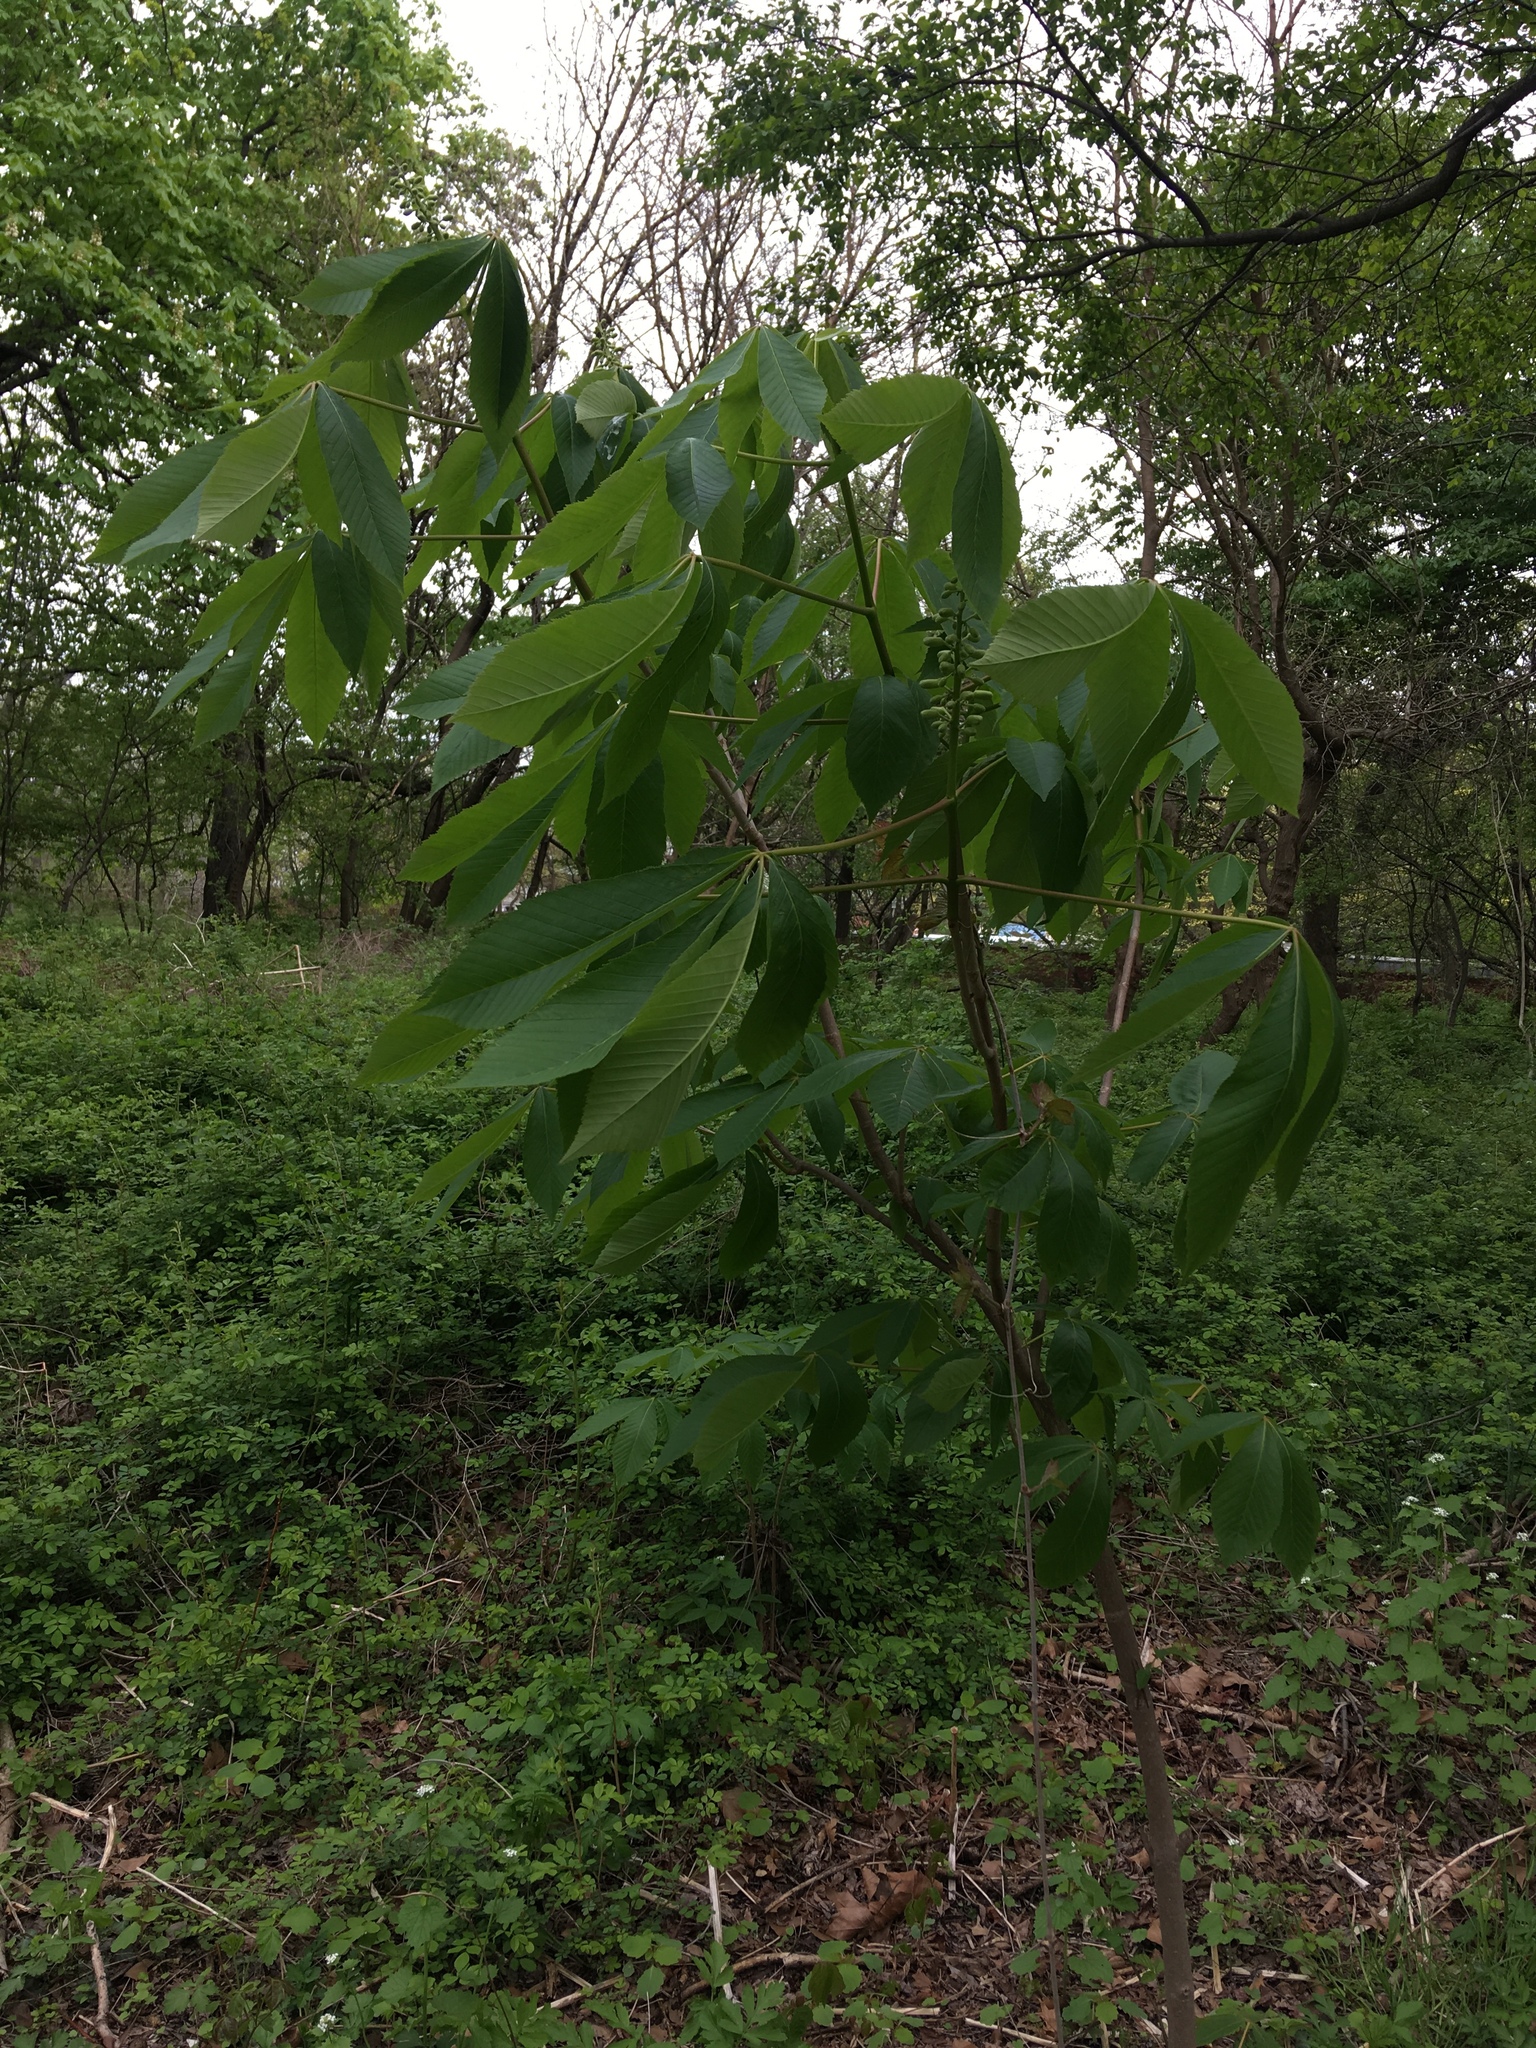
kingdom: Plantae
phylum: Tracheophyta
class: Magnoliopsida
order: Sapindales
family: Sapindaceae
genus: Aesculus
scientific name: Aesculus glabra
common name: Ohio buckeye
